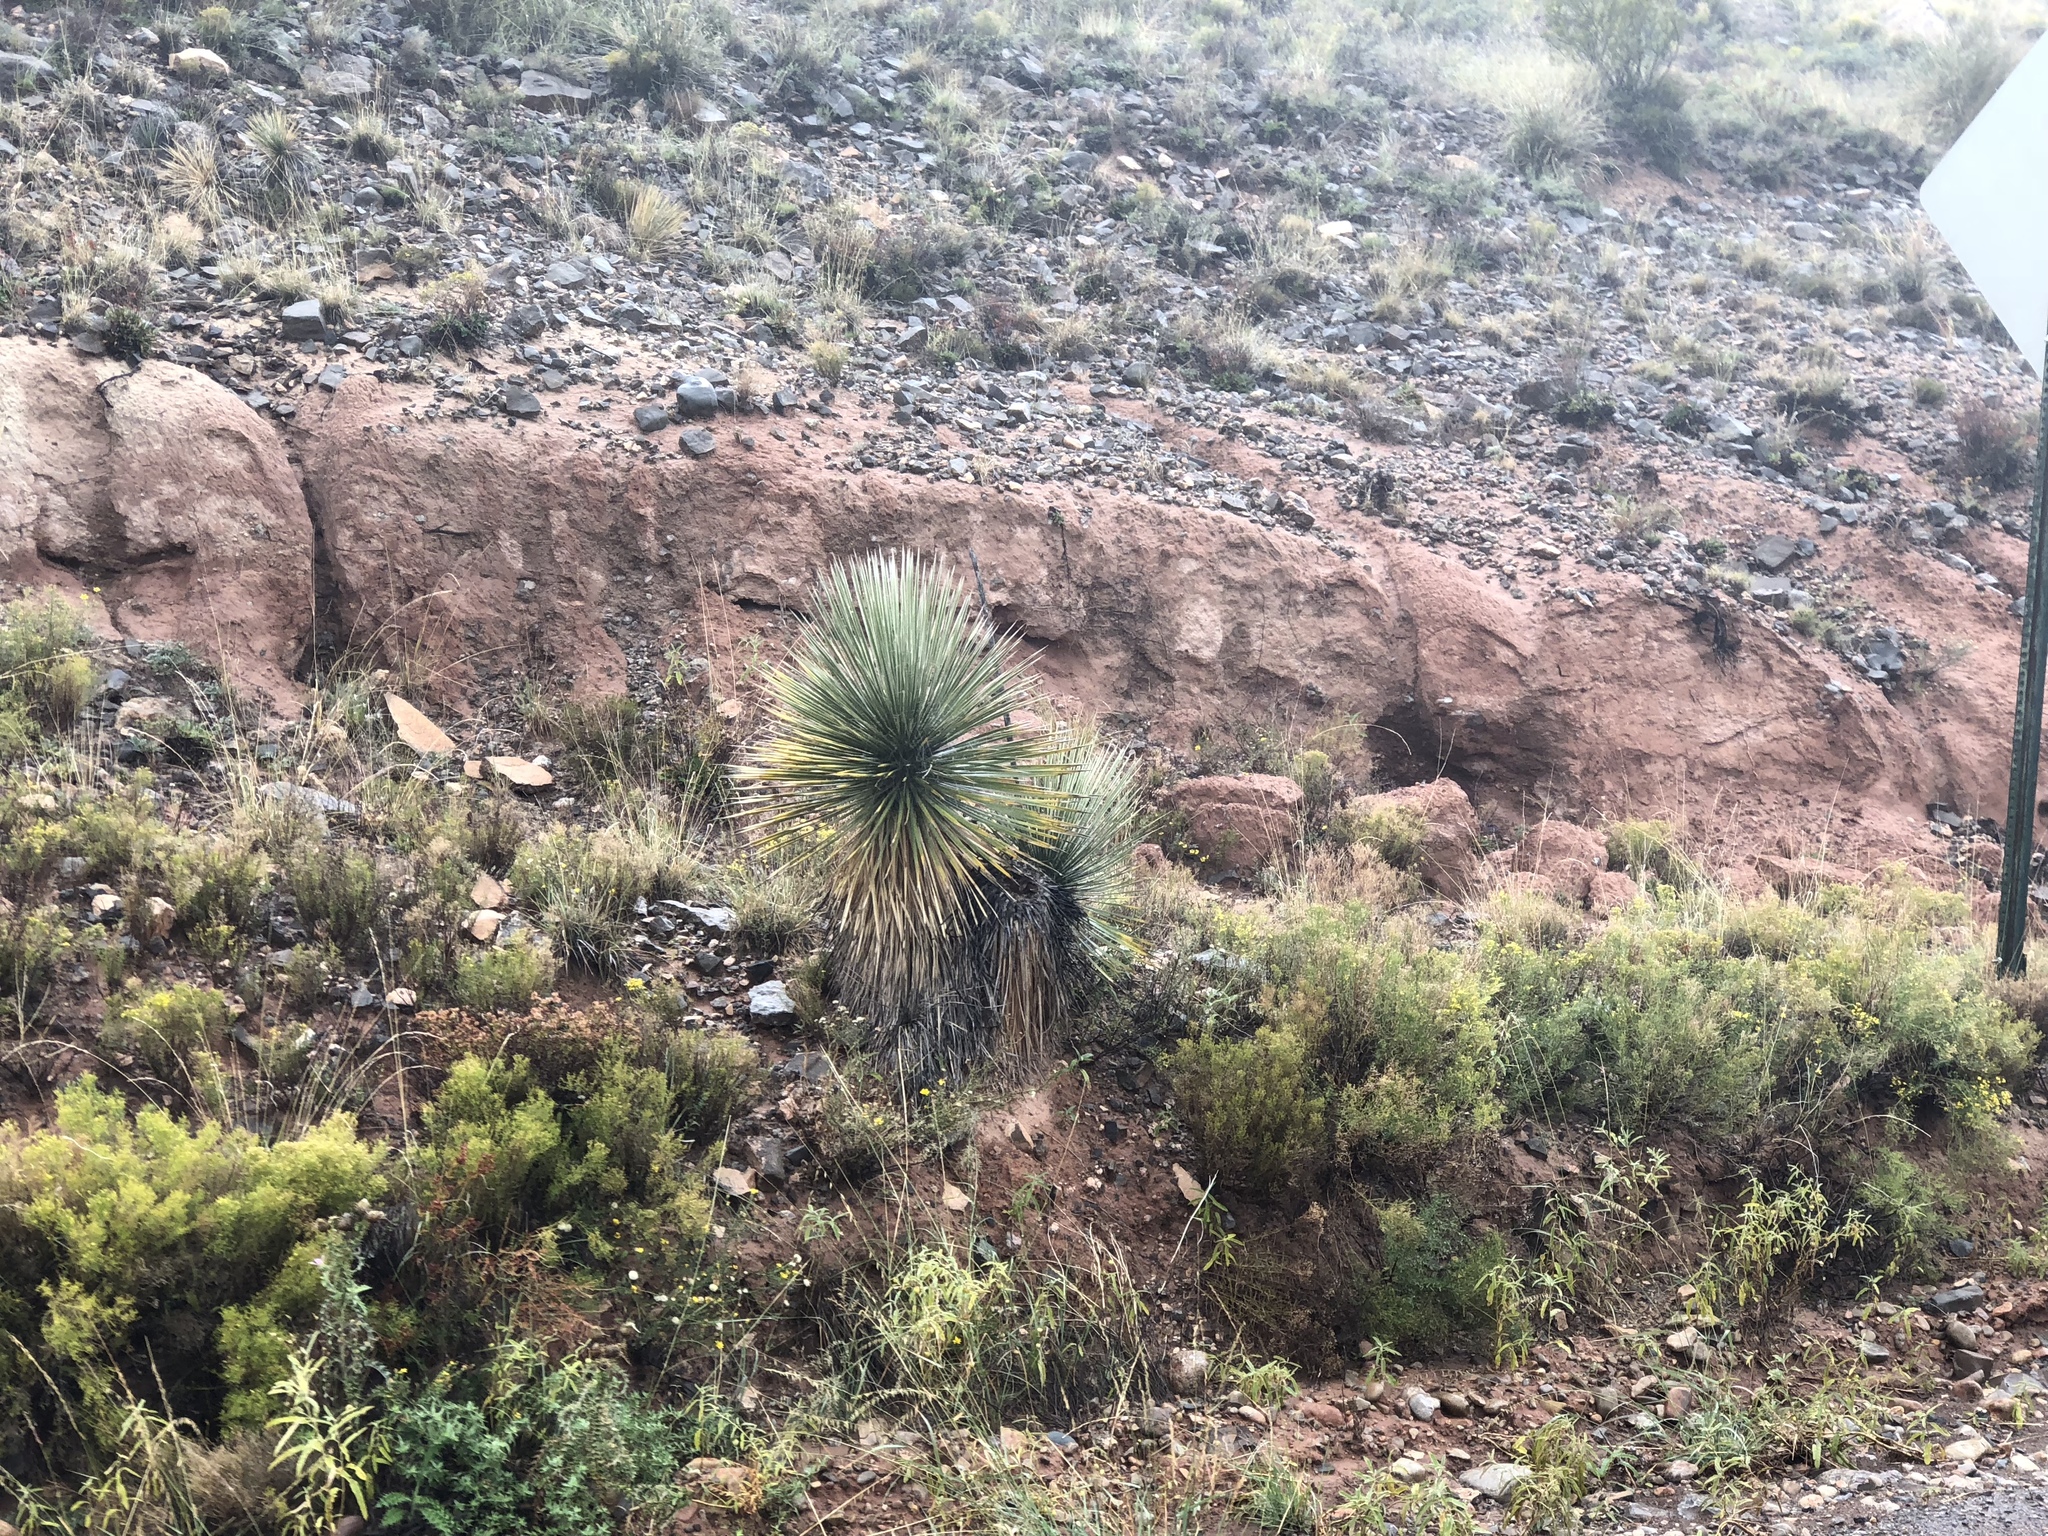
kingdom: Plantae
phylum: Tracheophyta
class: Liliopsida
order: Asparagales
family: Asparagaceae
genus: Yucca
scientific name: Yucca elata
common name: Palmella
